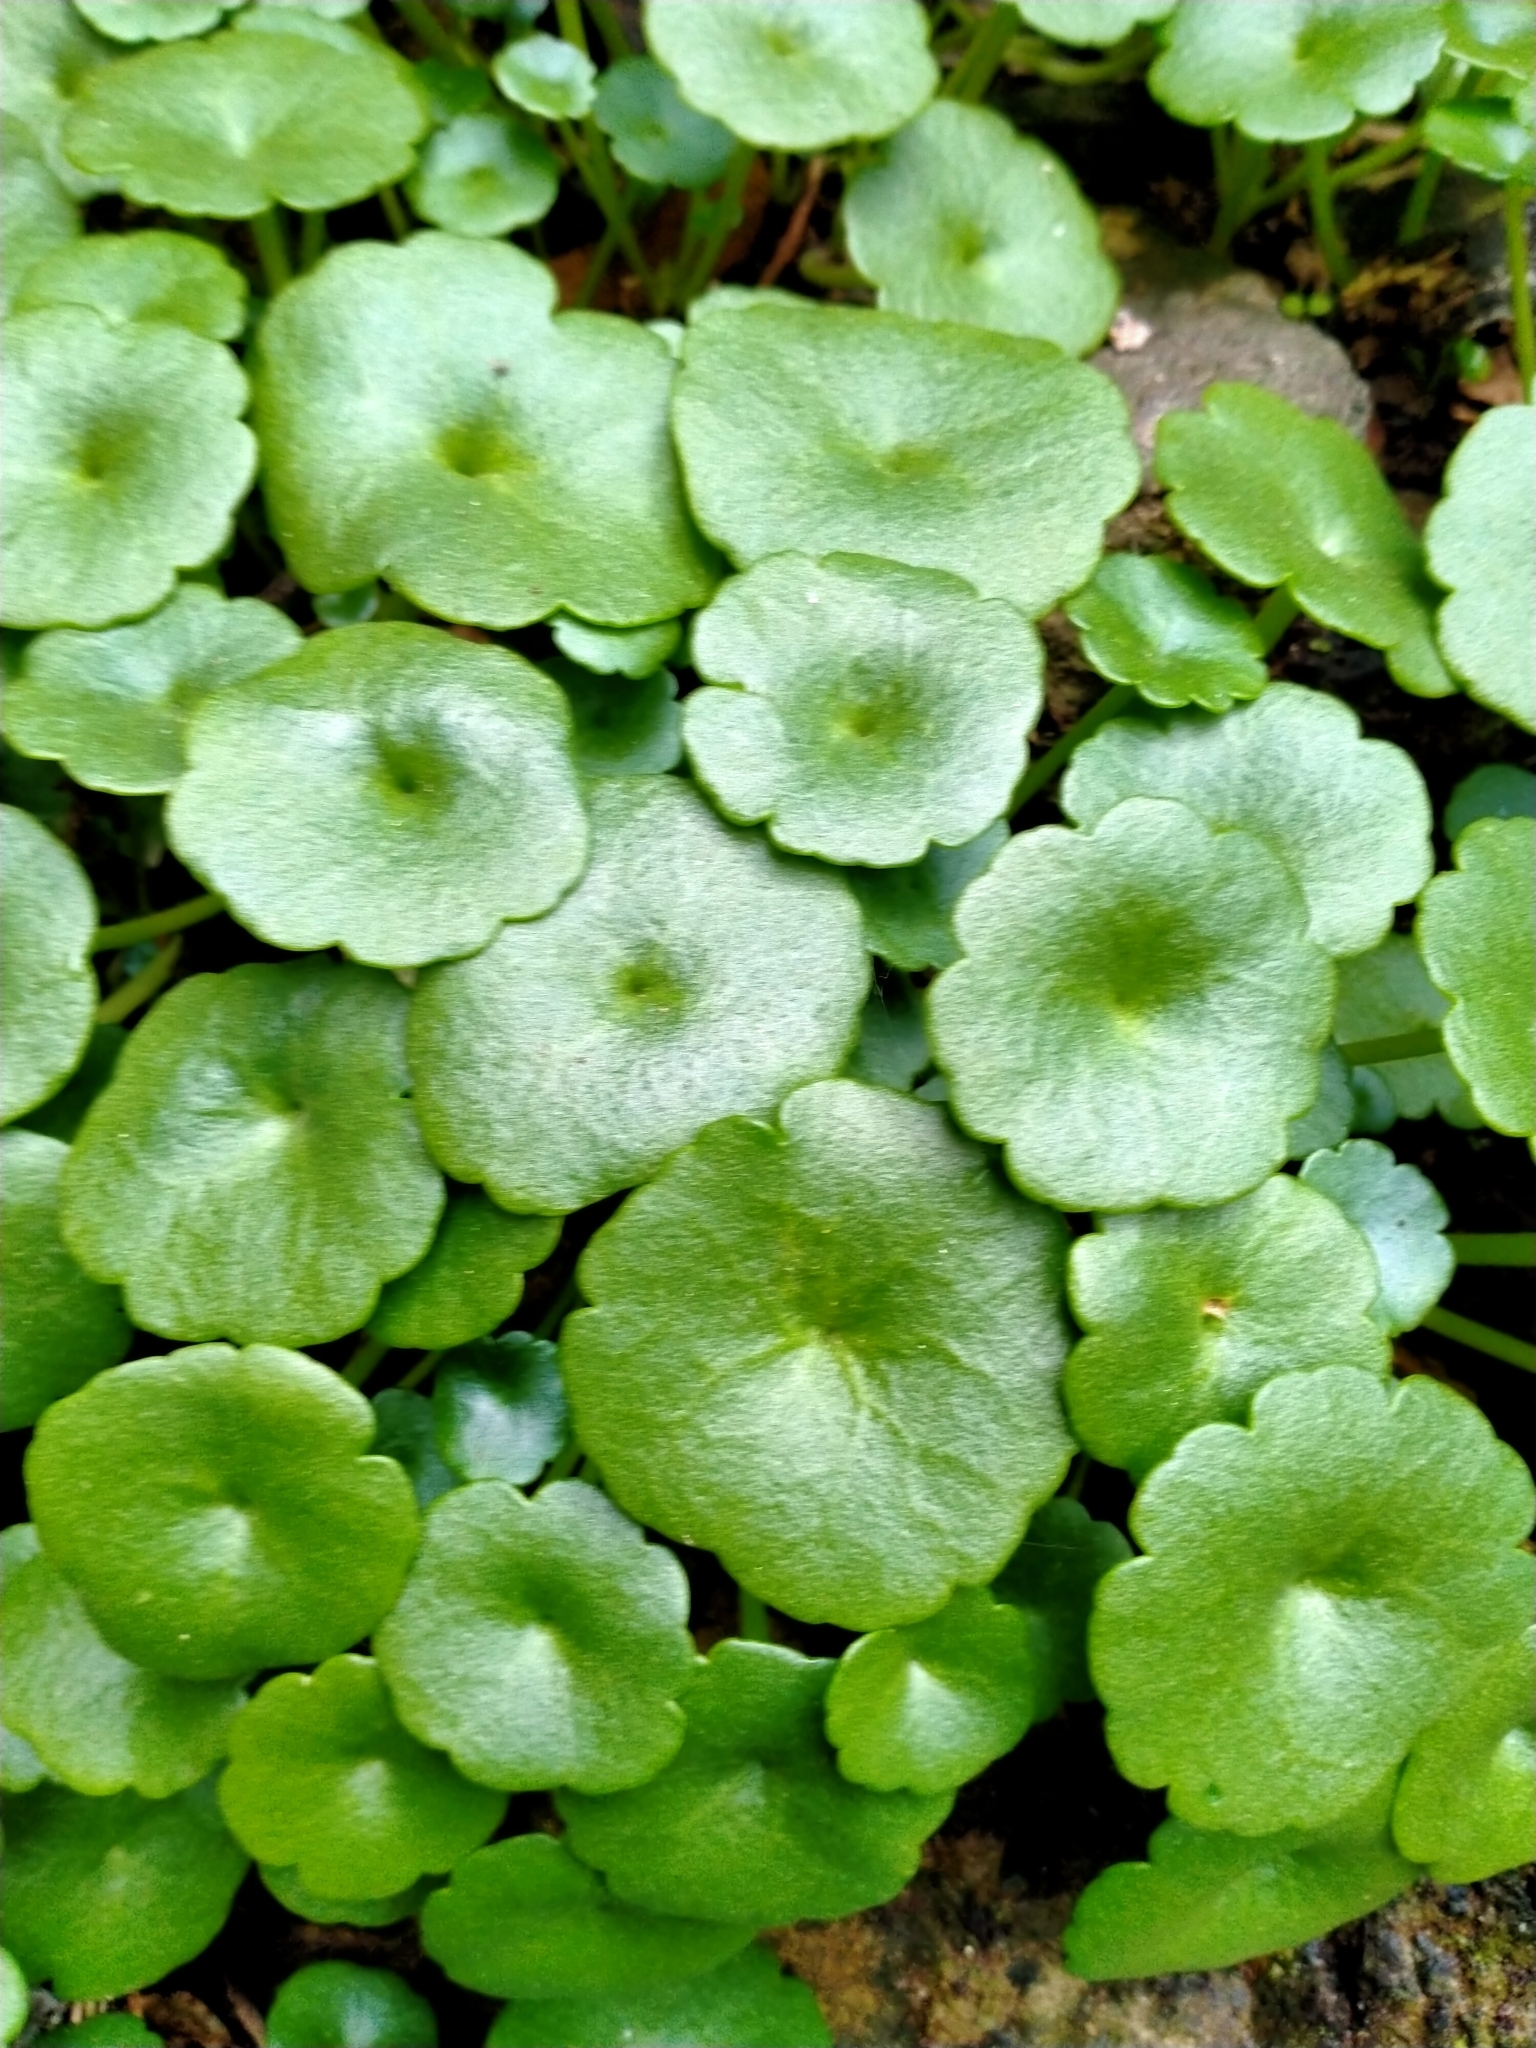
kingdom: Plantae
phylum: Tracheophyta
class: Magnoliopsida
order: Saxifragales
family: Crassulaceae
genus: Umbilicus
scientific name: Umbilicus rupestris
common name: Navelwort
